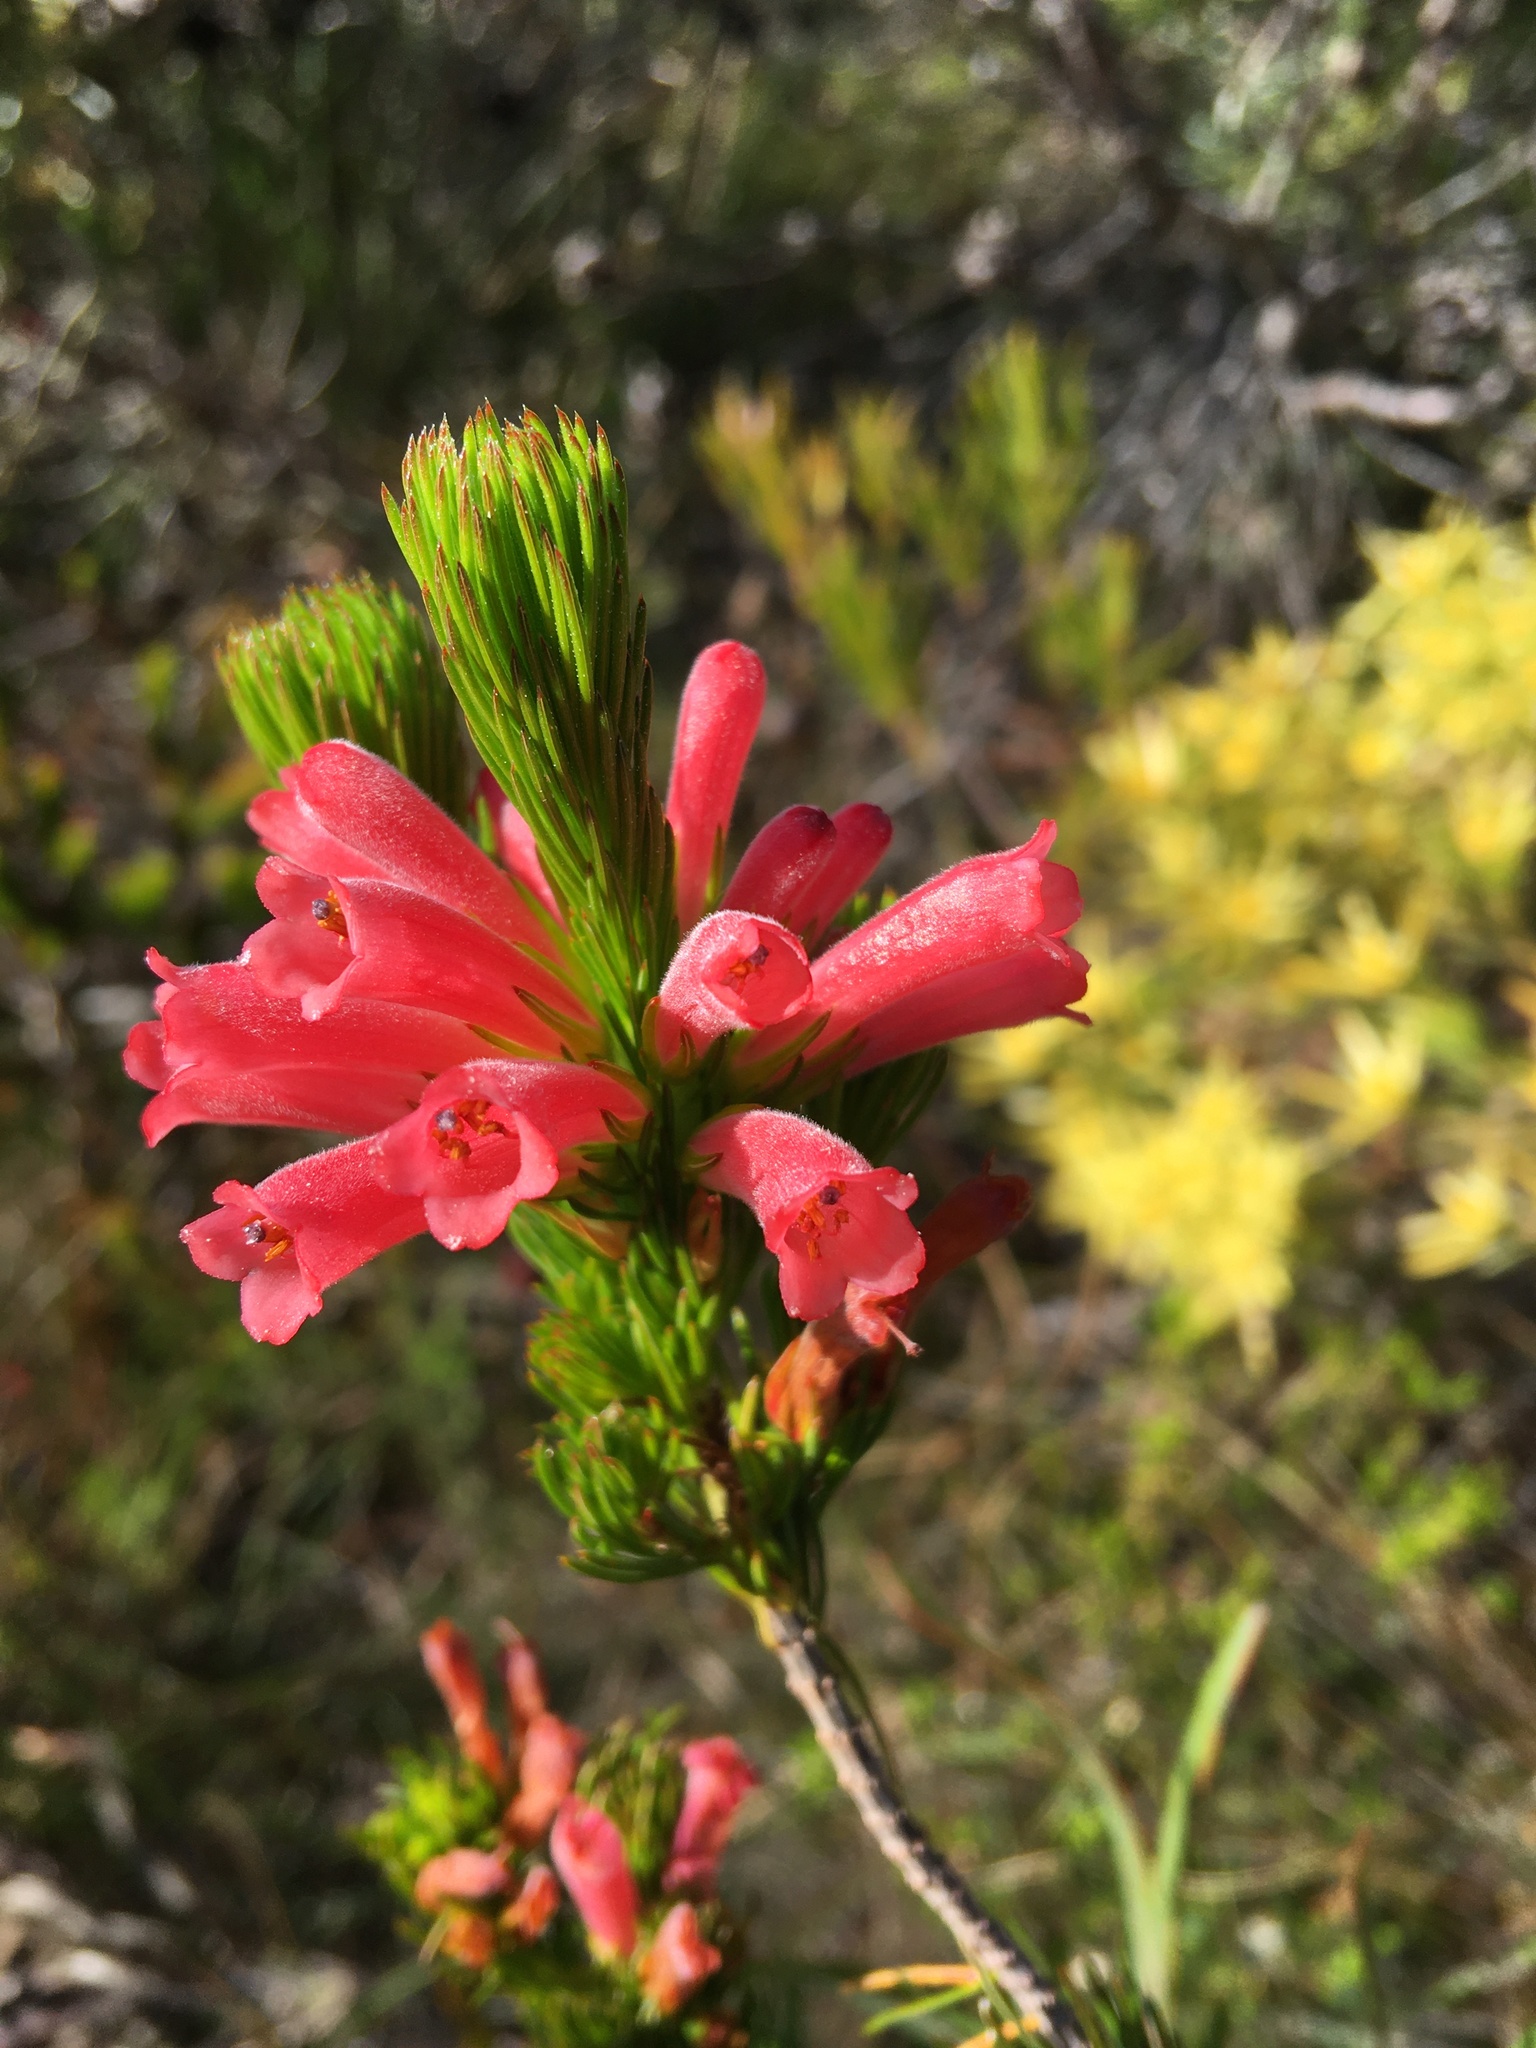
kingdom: Plantae
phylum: Tracheophyta
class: Magnoliopsida
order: Ericales
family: Ericaceae
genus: Erica
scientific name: Erica vestita
